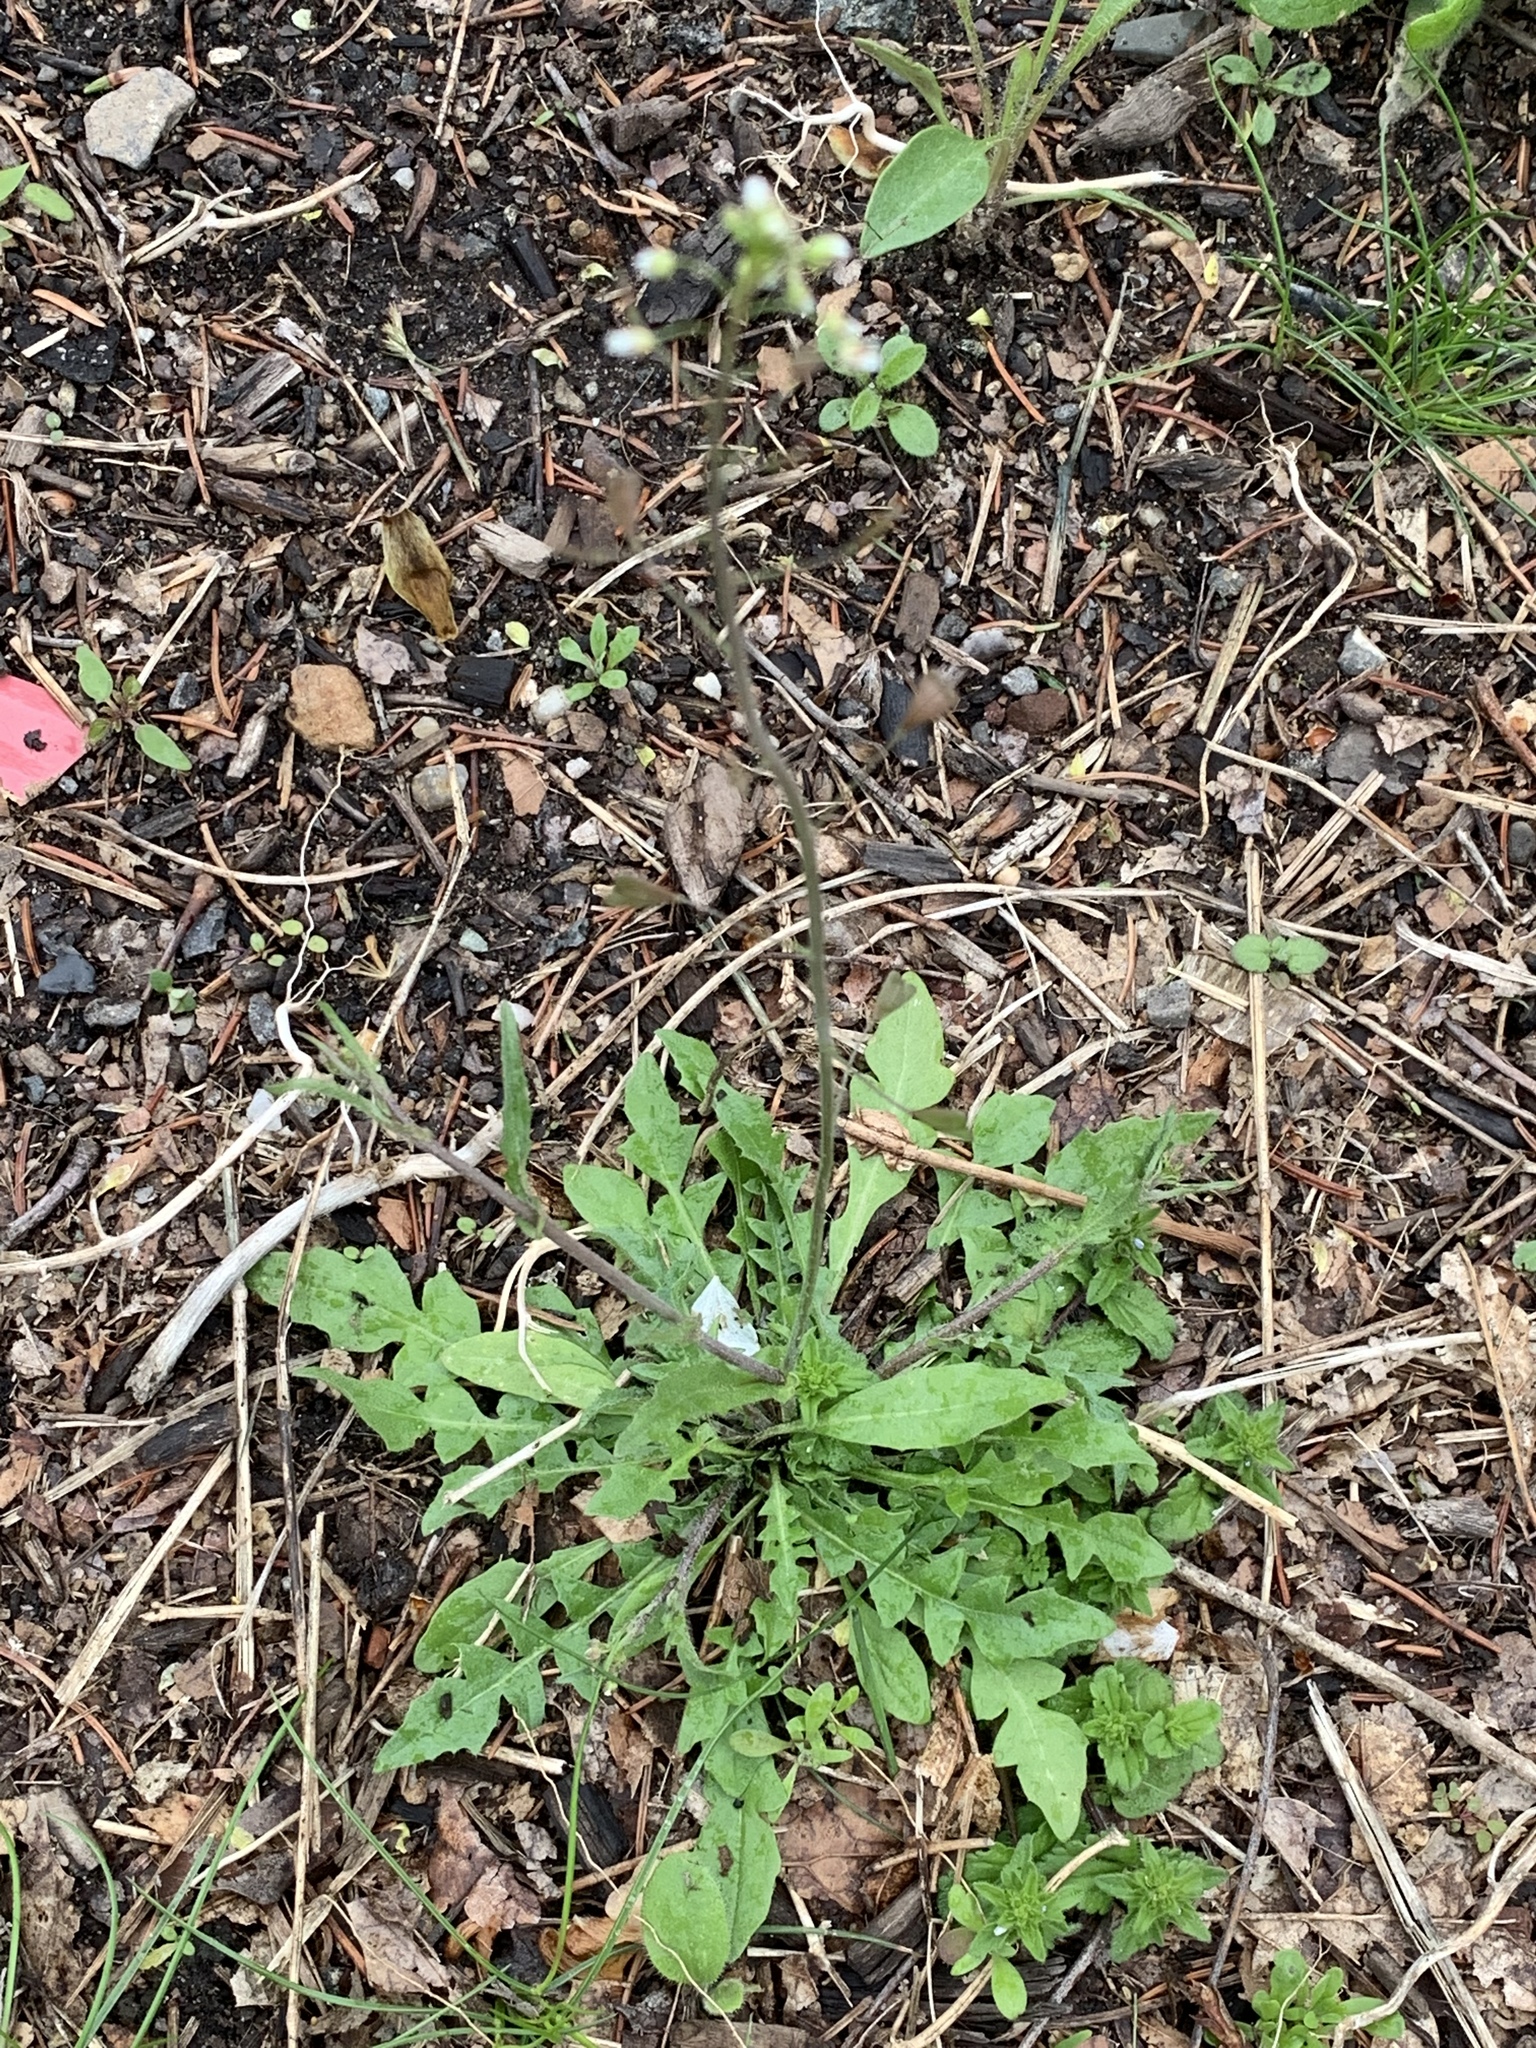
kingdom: Plantae
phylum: Tracheophyta
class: Magnoliopsida
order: Brassicales
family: Brassicaceae
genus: Capsella
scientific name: Capsella bursa-pastoris
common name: Shepherd's purse
